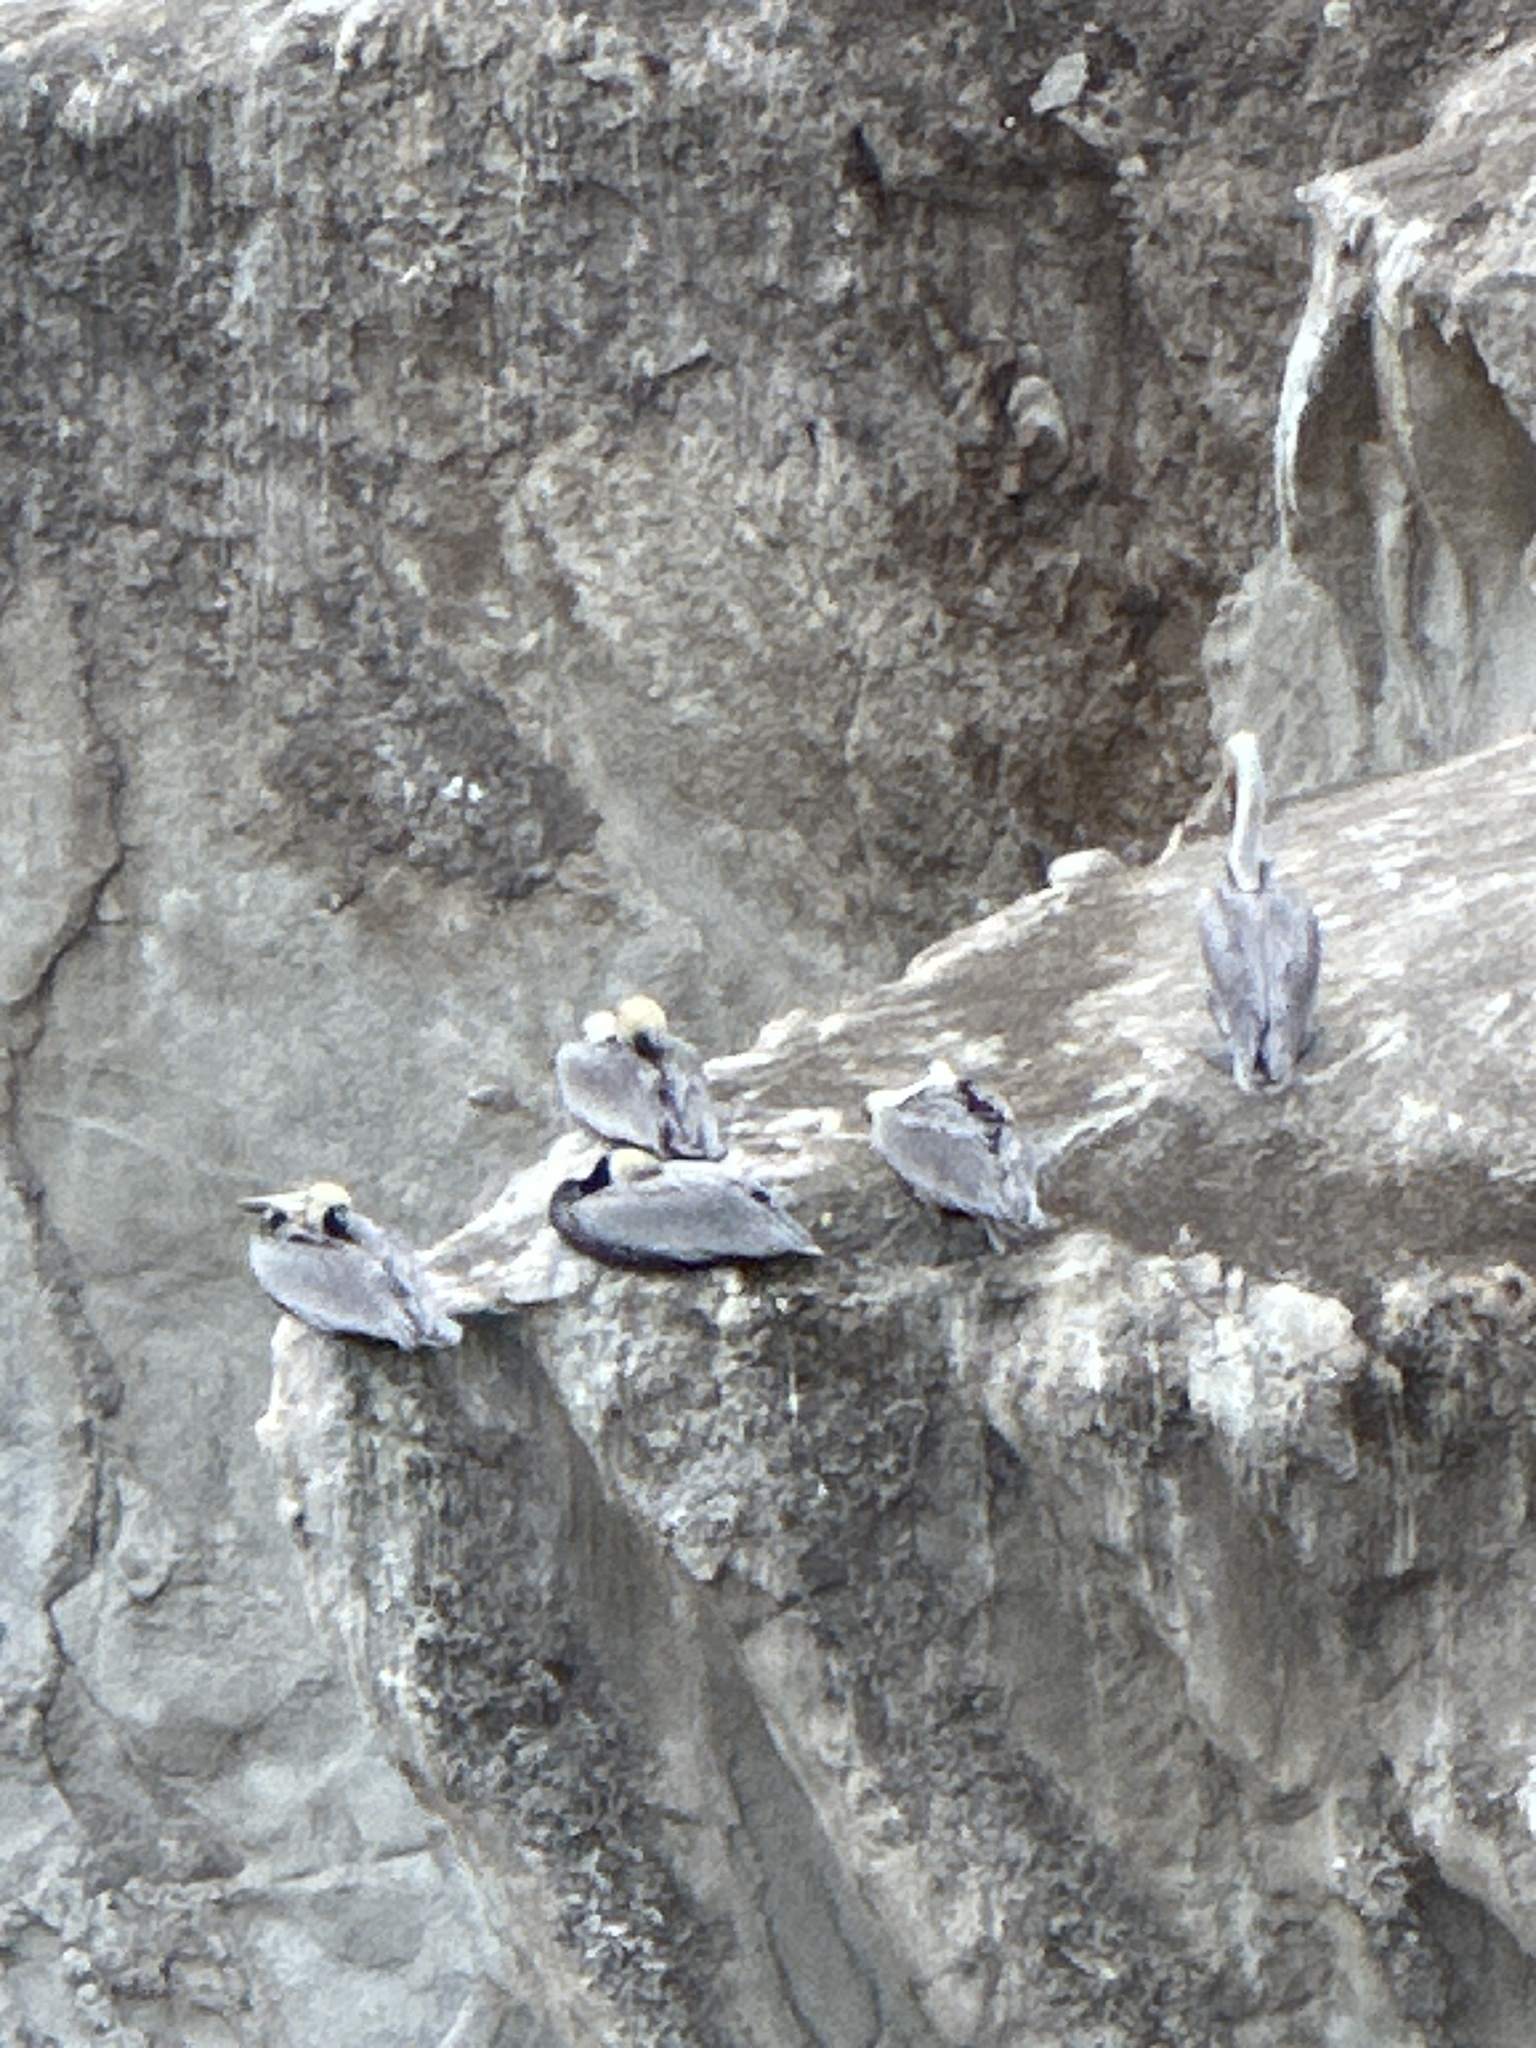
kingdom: Animalia
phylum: Chordata
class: Aves
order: Pelecaniformes
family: Pelecanidae
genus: Pelecanus
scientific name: Pelecanus occidentalis
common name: Brown pelican
